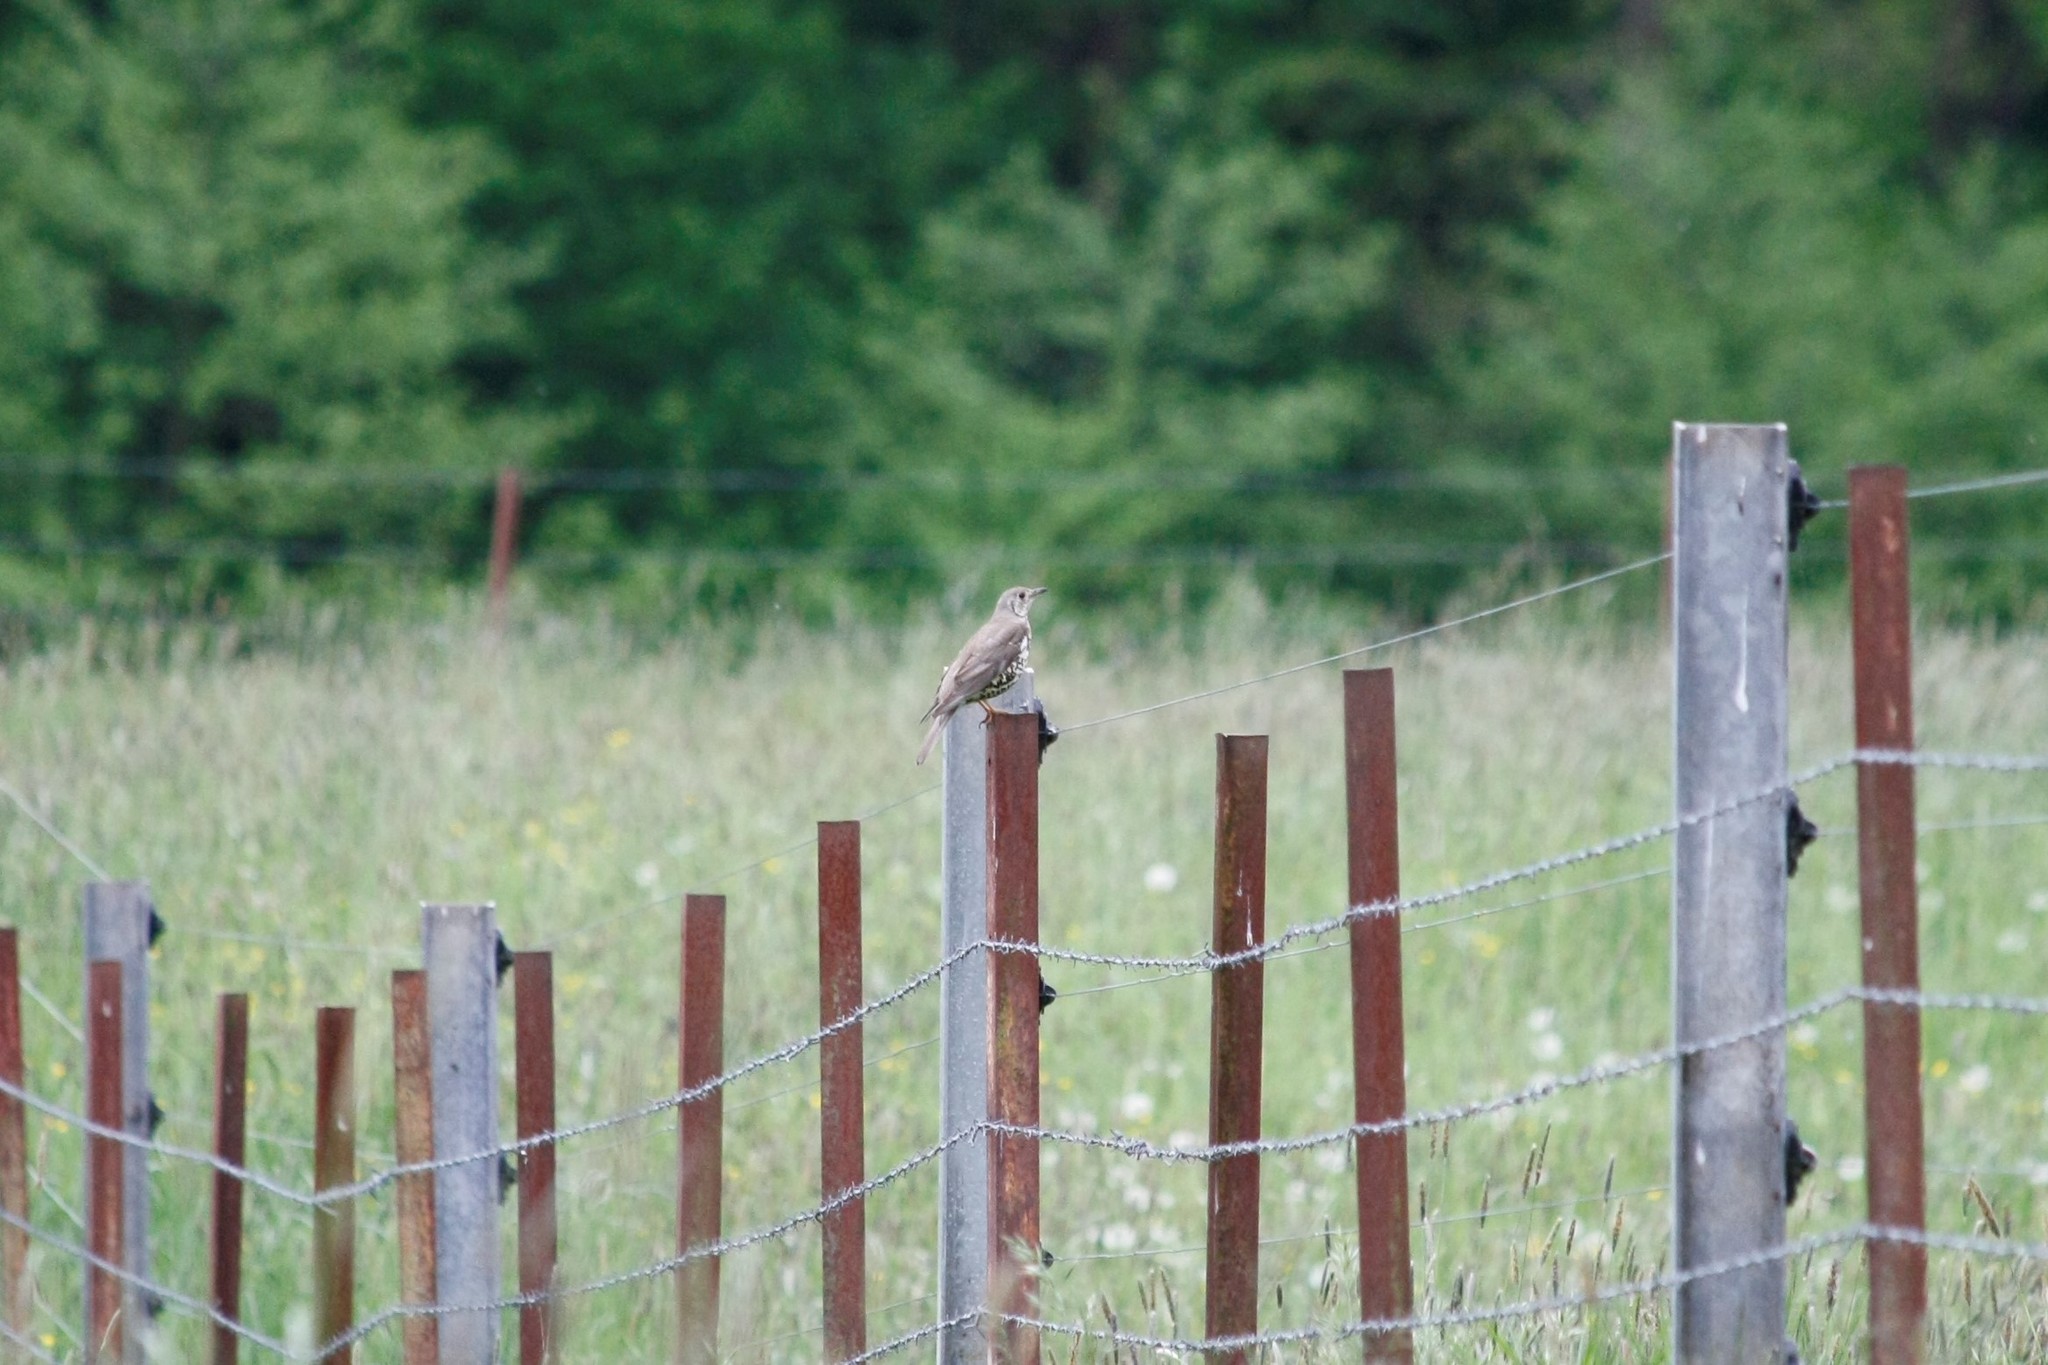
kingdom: Animalia
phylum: Chordata
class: Aves
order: Passeriformes
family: Turdidae
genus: Turdus
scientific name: Turdus viscivorus
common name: Mistle thrush
